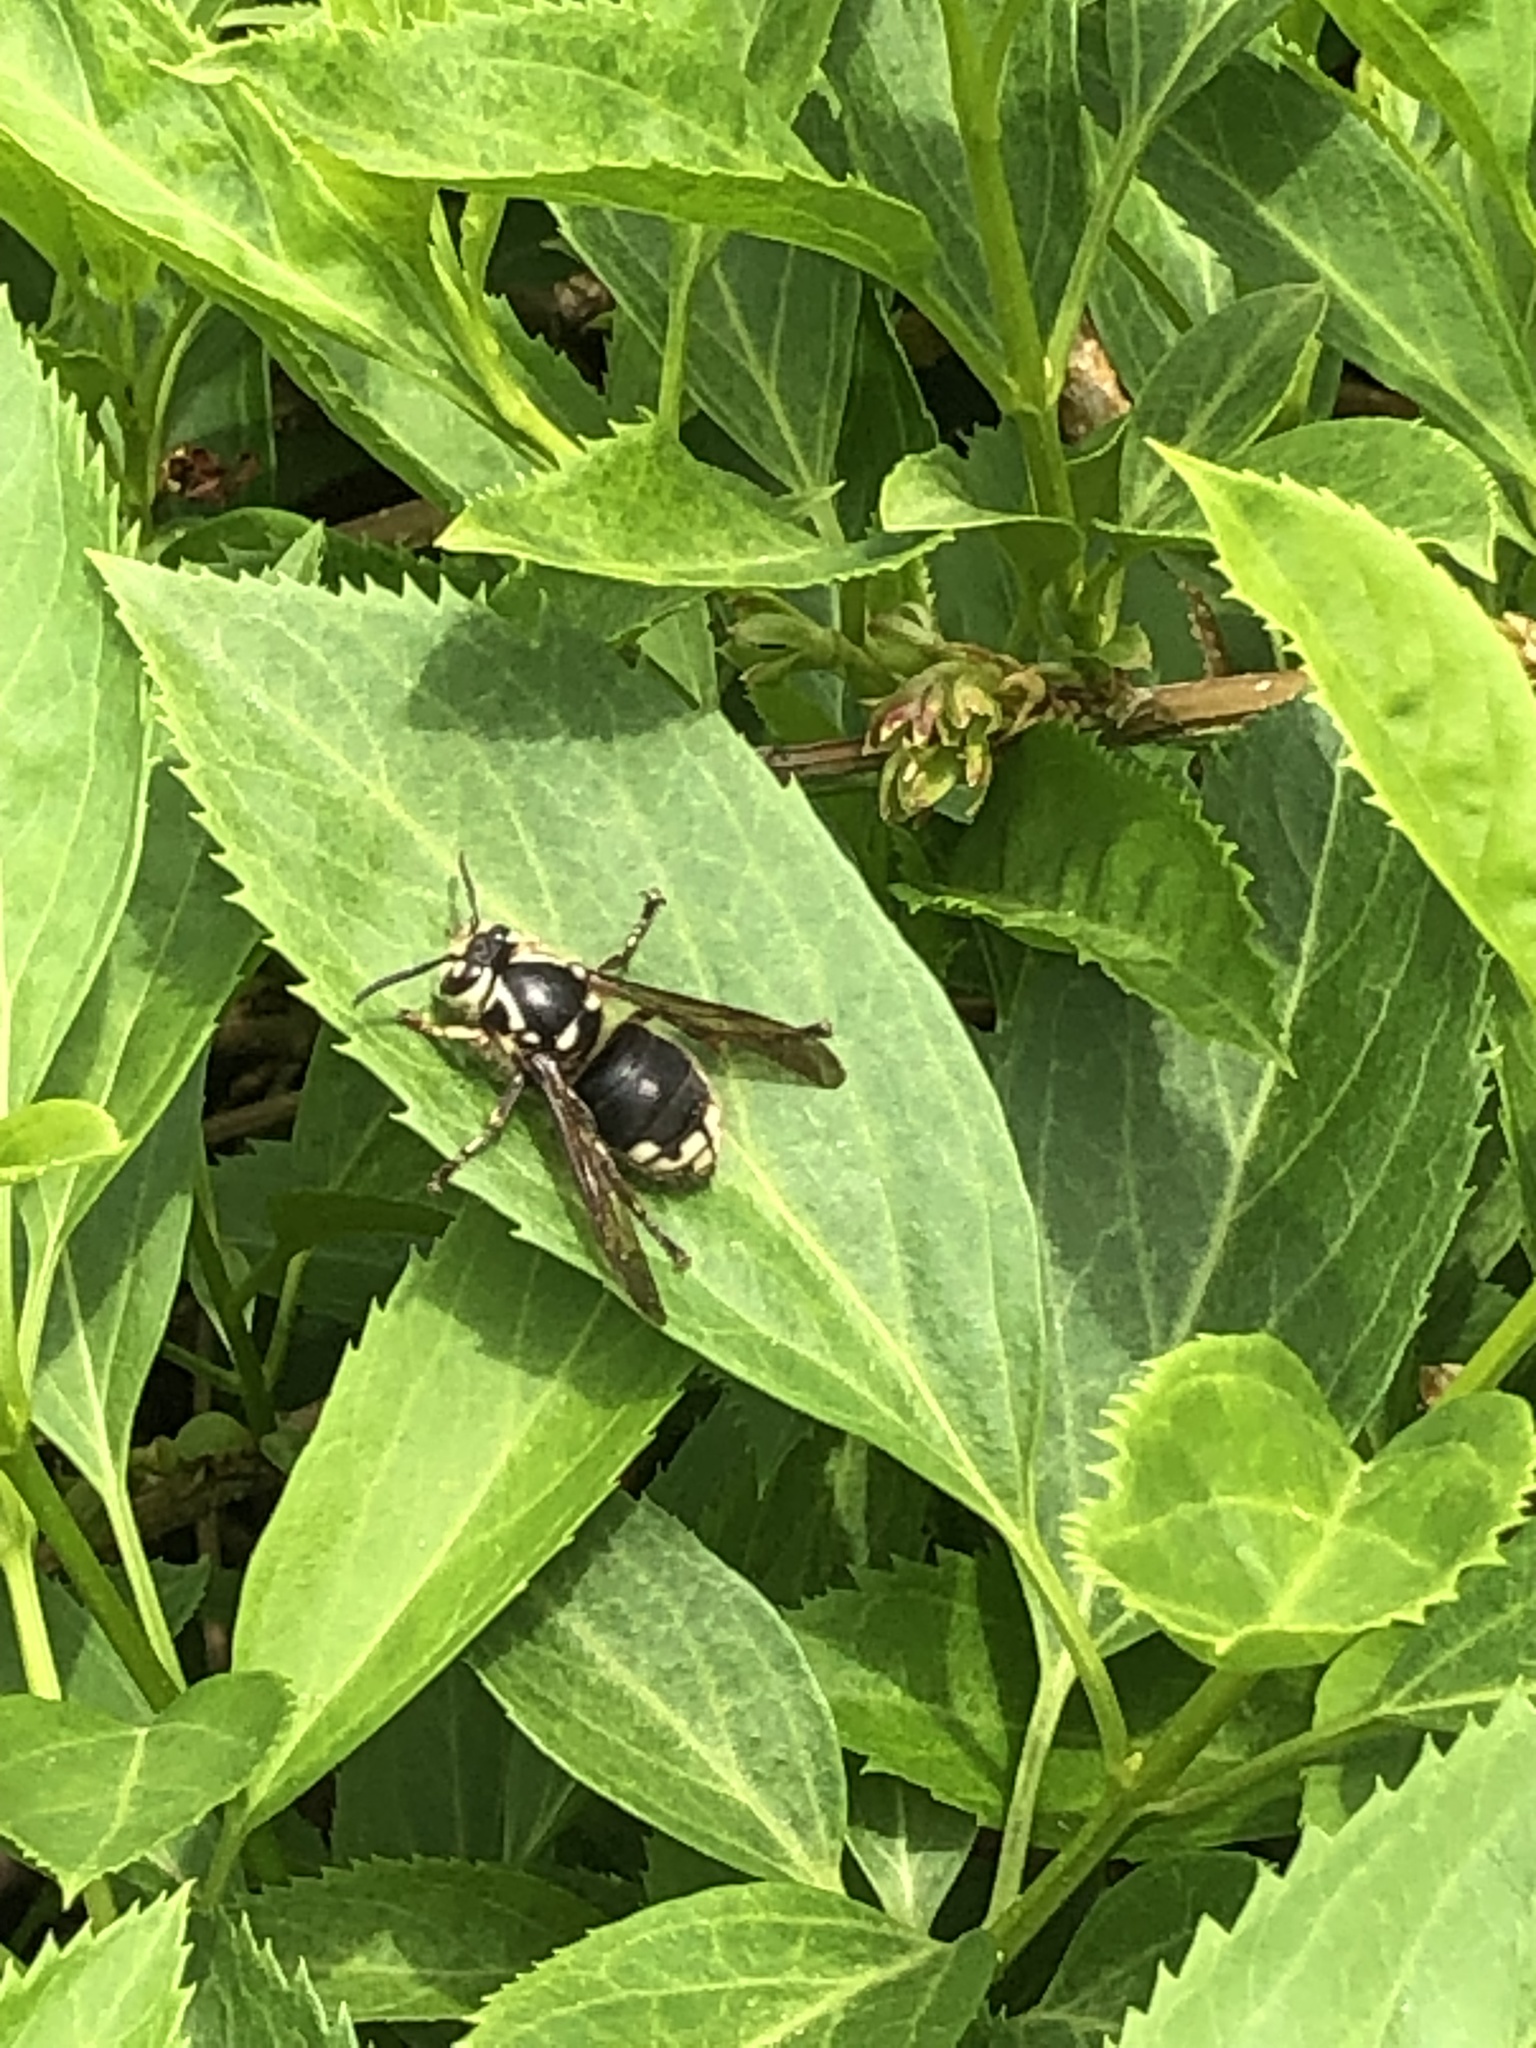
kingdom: Animalia
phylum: Arthropoda
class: Insecta
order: Hymenoptera
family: Vespidae
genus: Dolichovespula
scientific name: Dolichovespula maculata
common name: Bald-faced hornet
